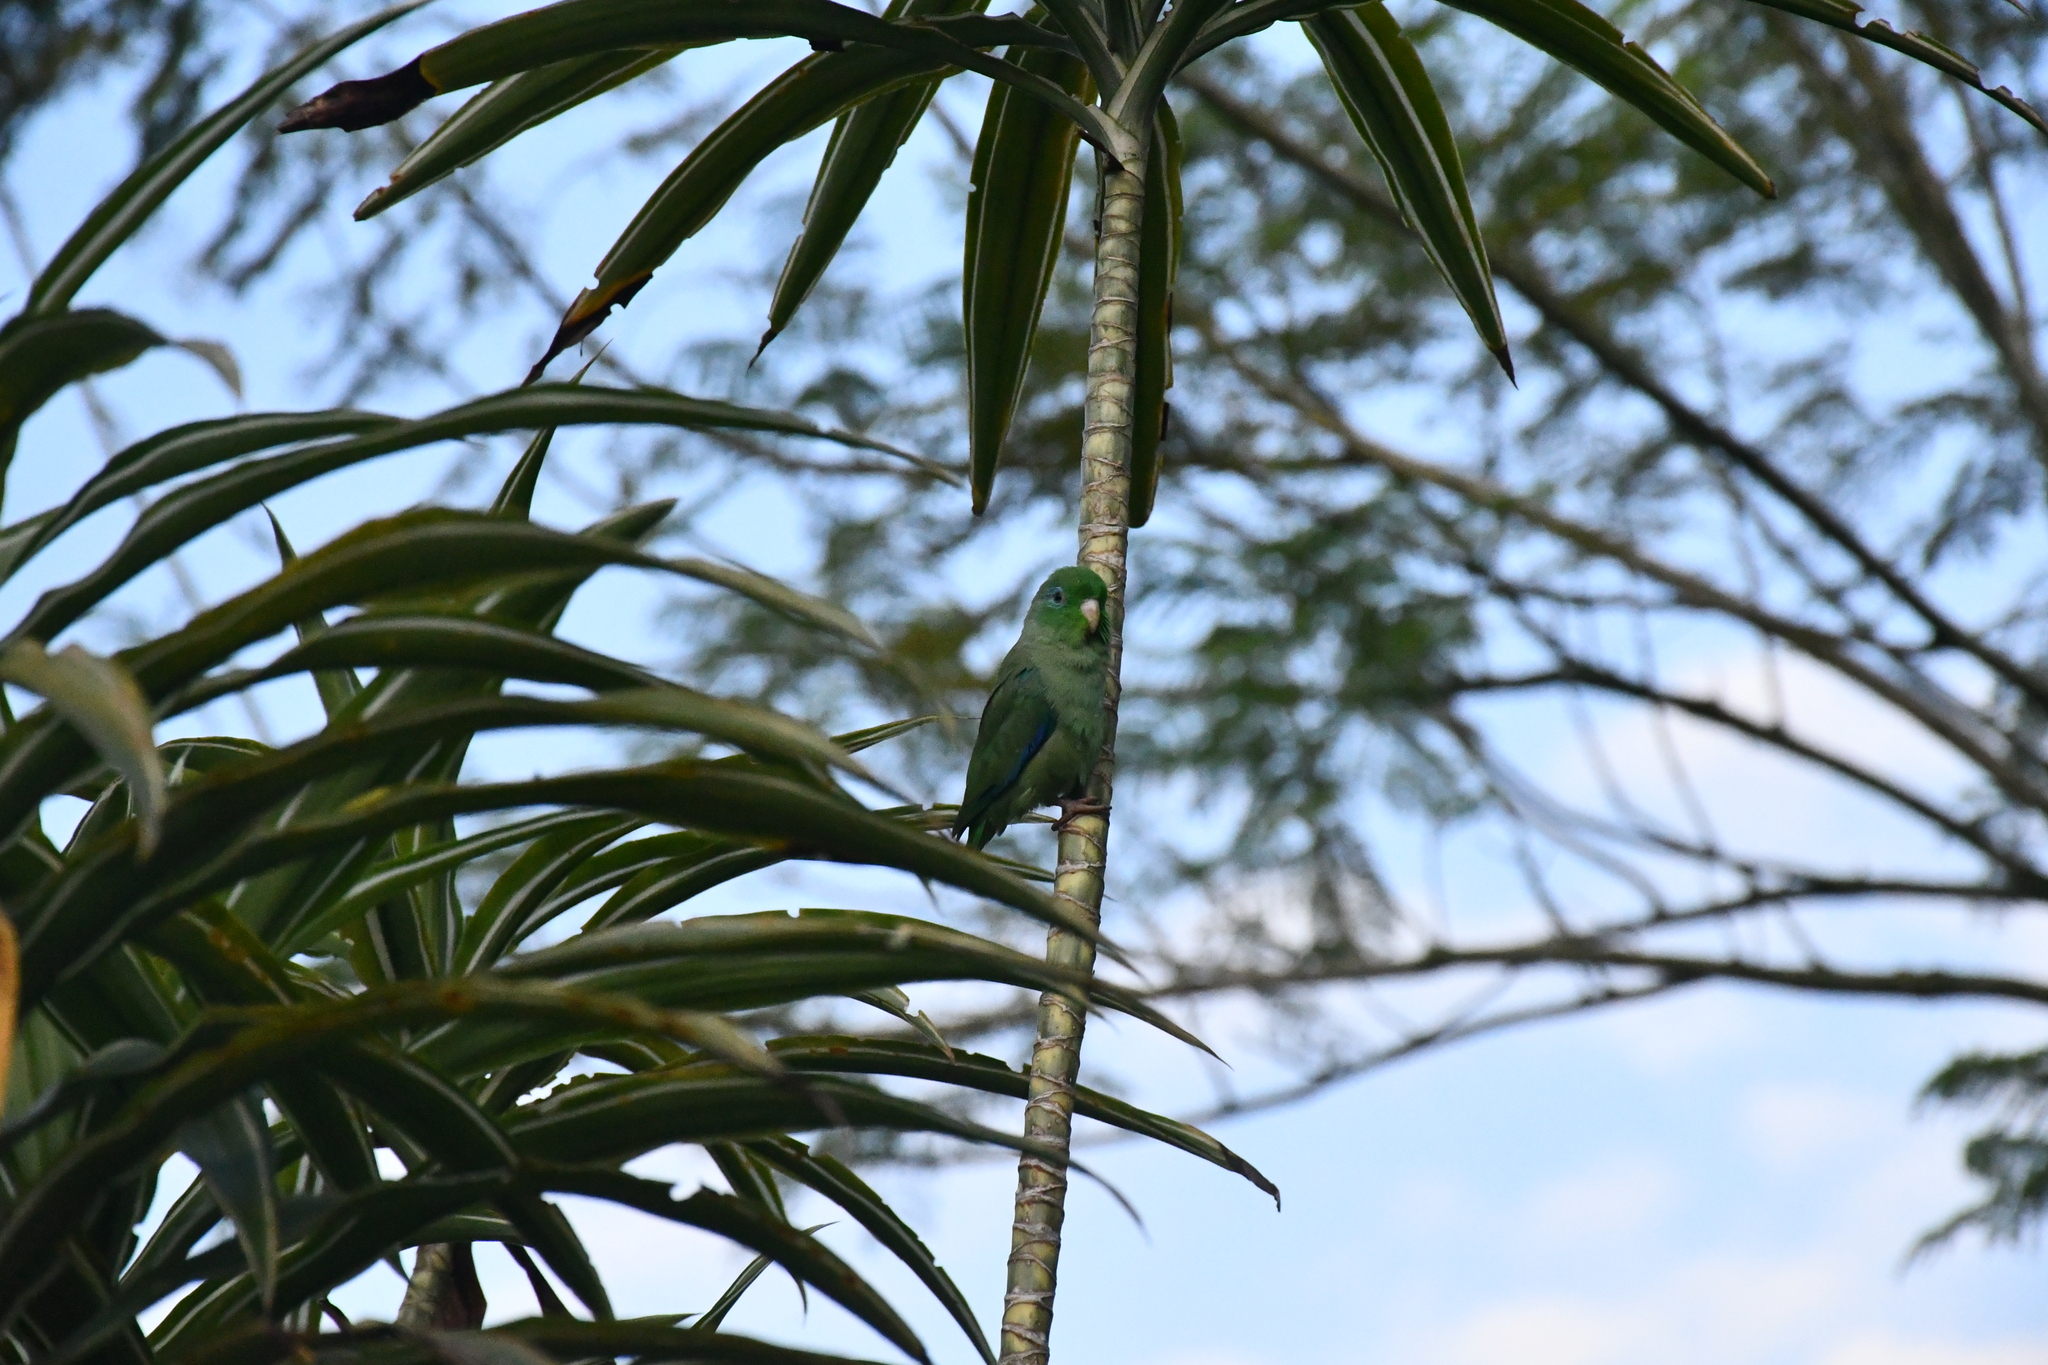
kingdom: Animalia
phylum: Chordata
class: Aves
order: Psittaciformes
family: Psittacidae
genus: Forpus
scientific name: Forpus conspicillatus
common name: Spectacled parrotlet
